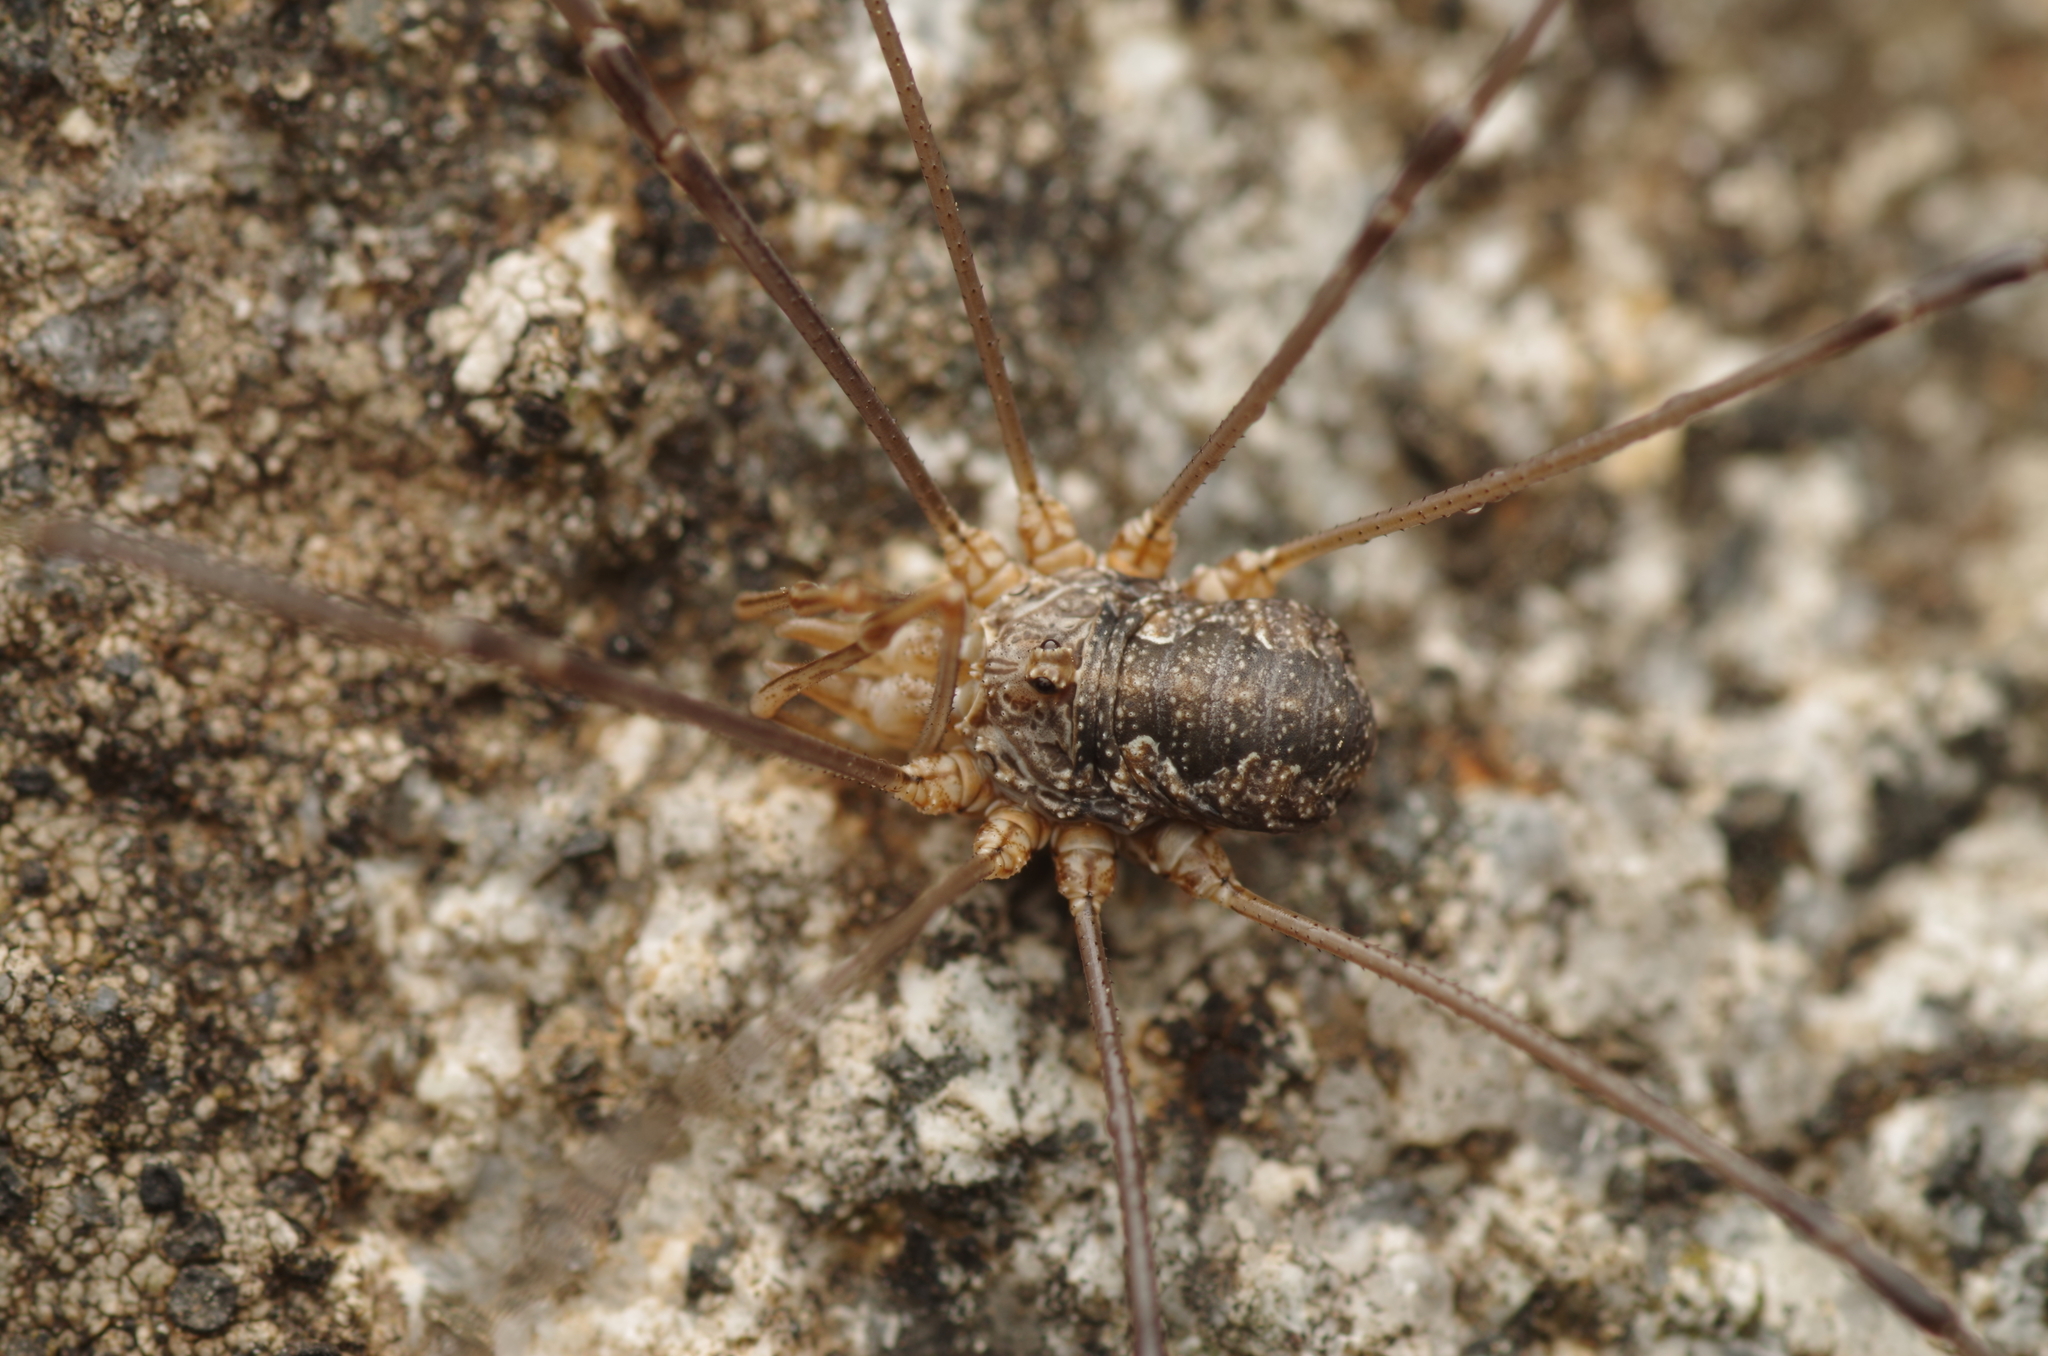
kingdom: Animalia
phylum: Arthropoda
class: Arachnida
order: Opiliones
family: Phalangiidae
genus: Phalangium
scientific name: Phalangium opilio
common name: Daddy longleg
